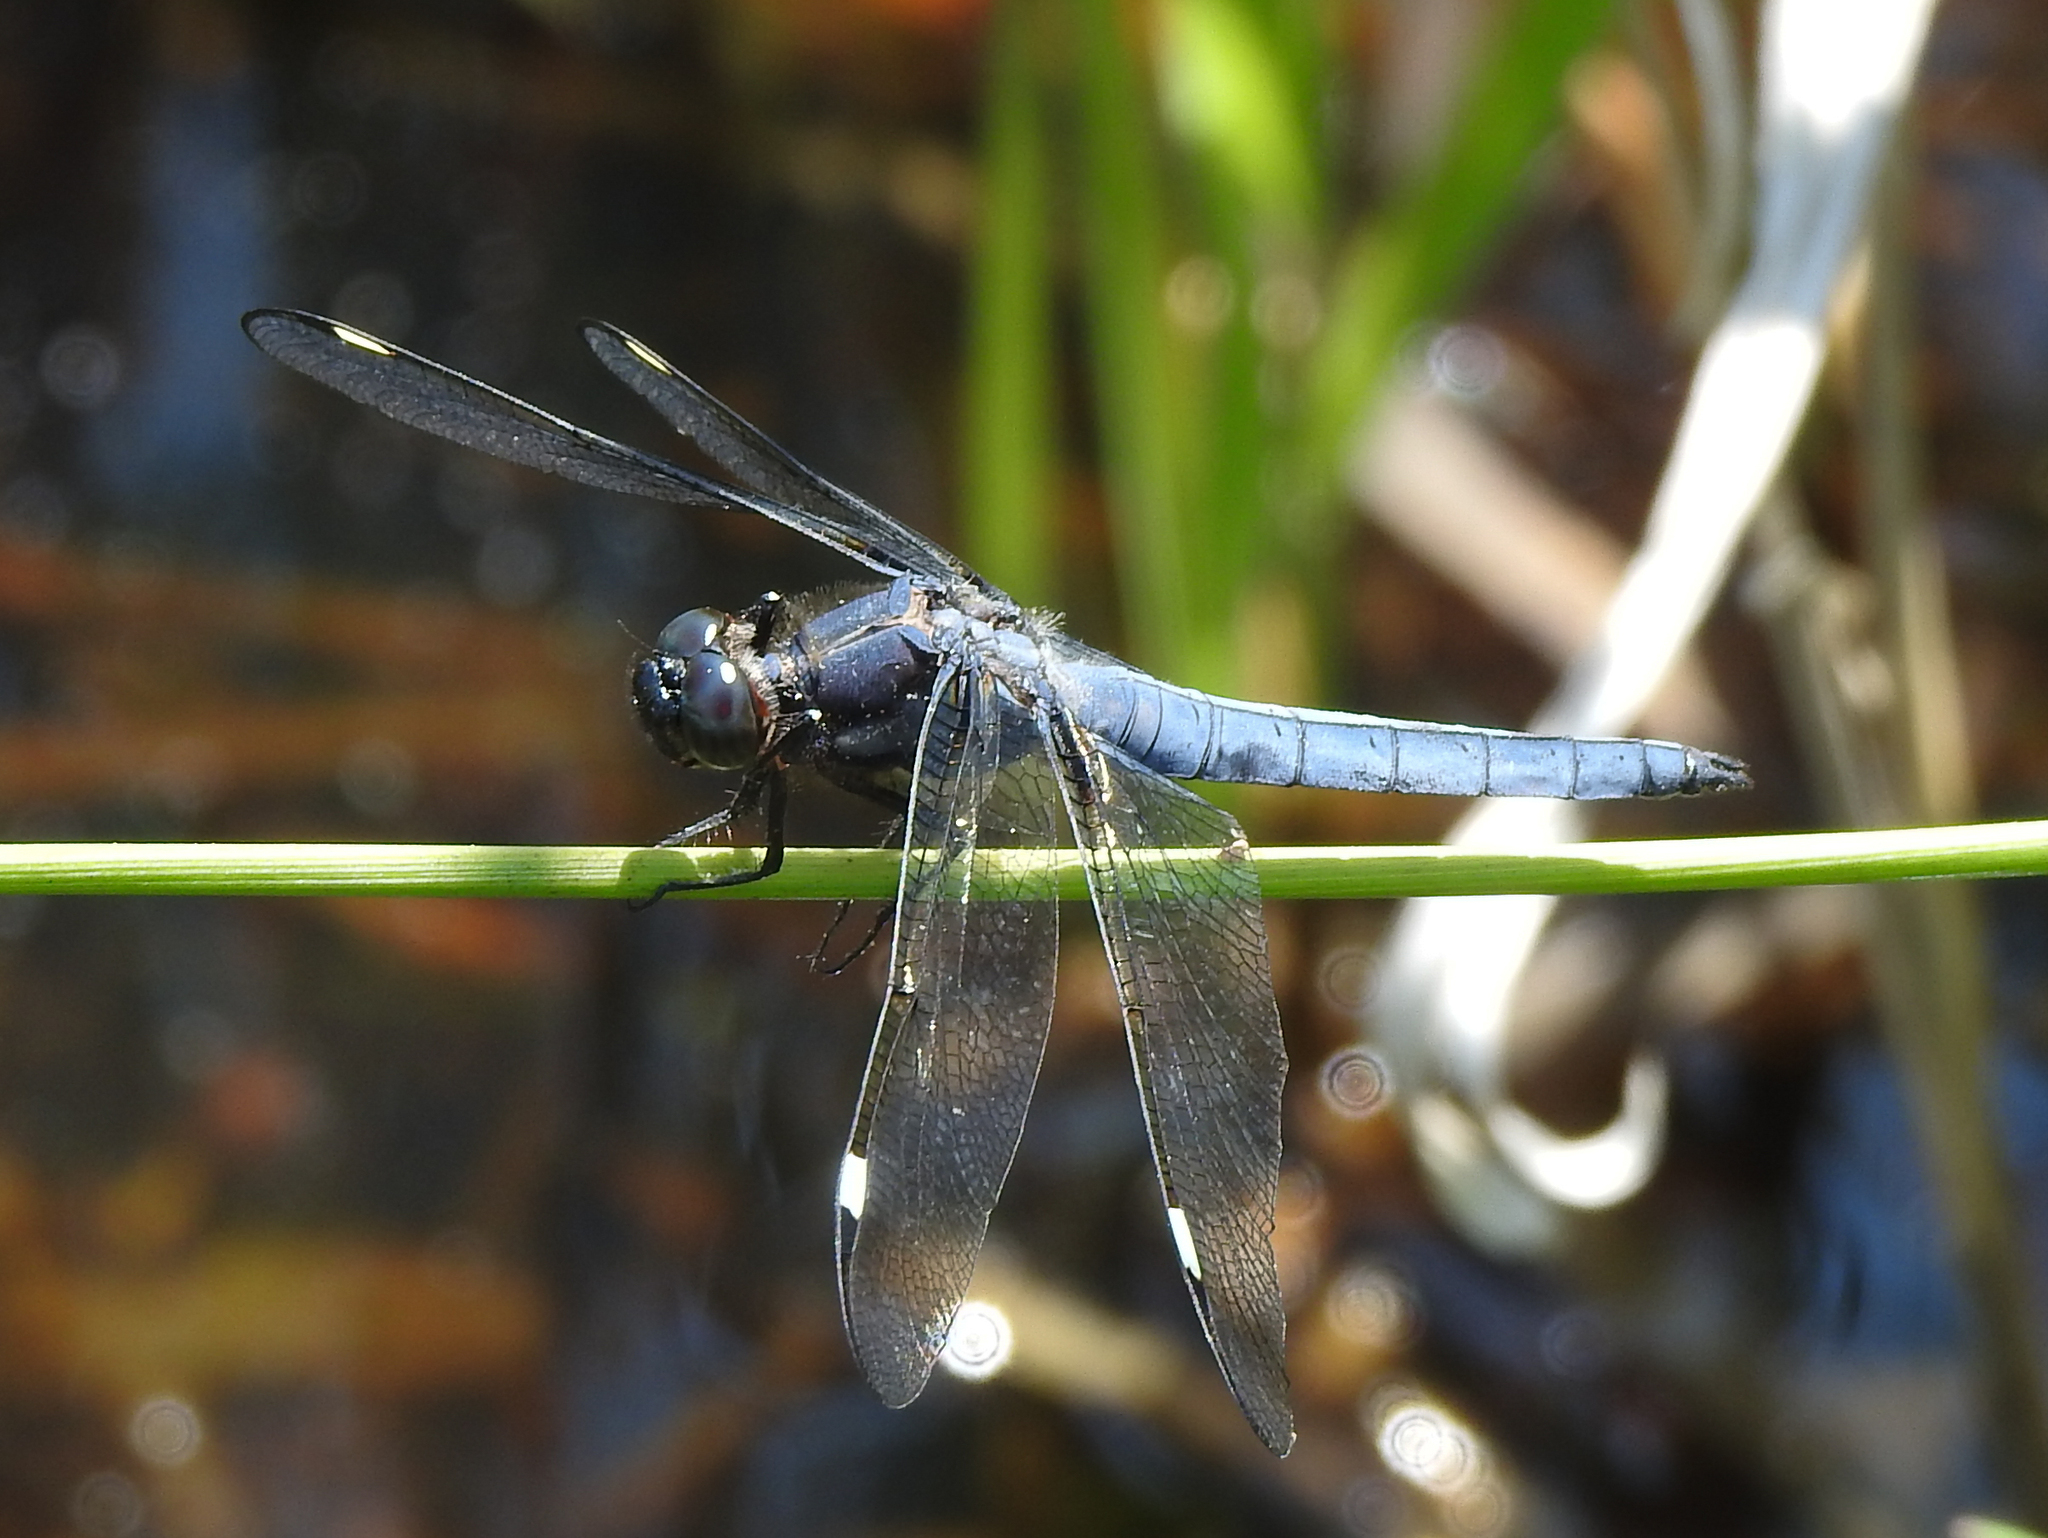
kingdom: Animalia
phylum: Arthropoda
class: Insecta
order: Odonata
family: Libellulidae
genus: Libellula
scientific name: Libellula cyanea
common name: Spangled skimmer
